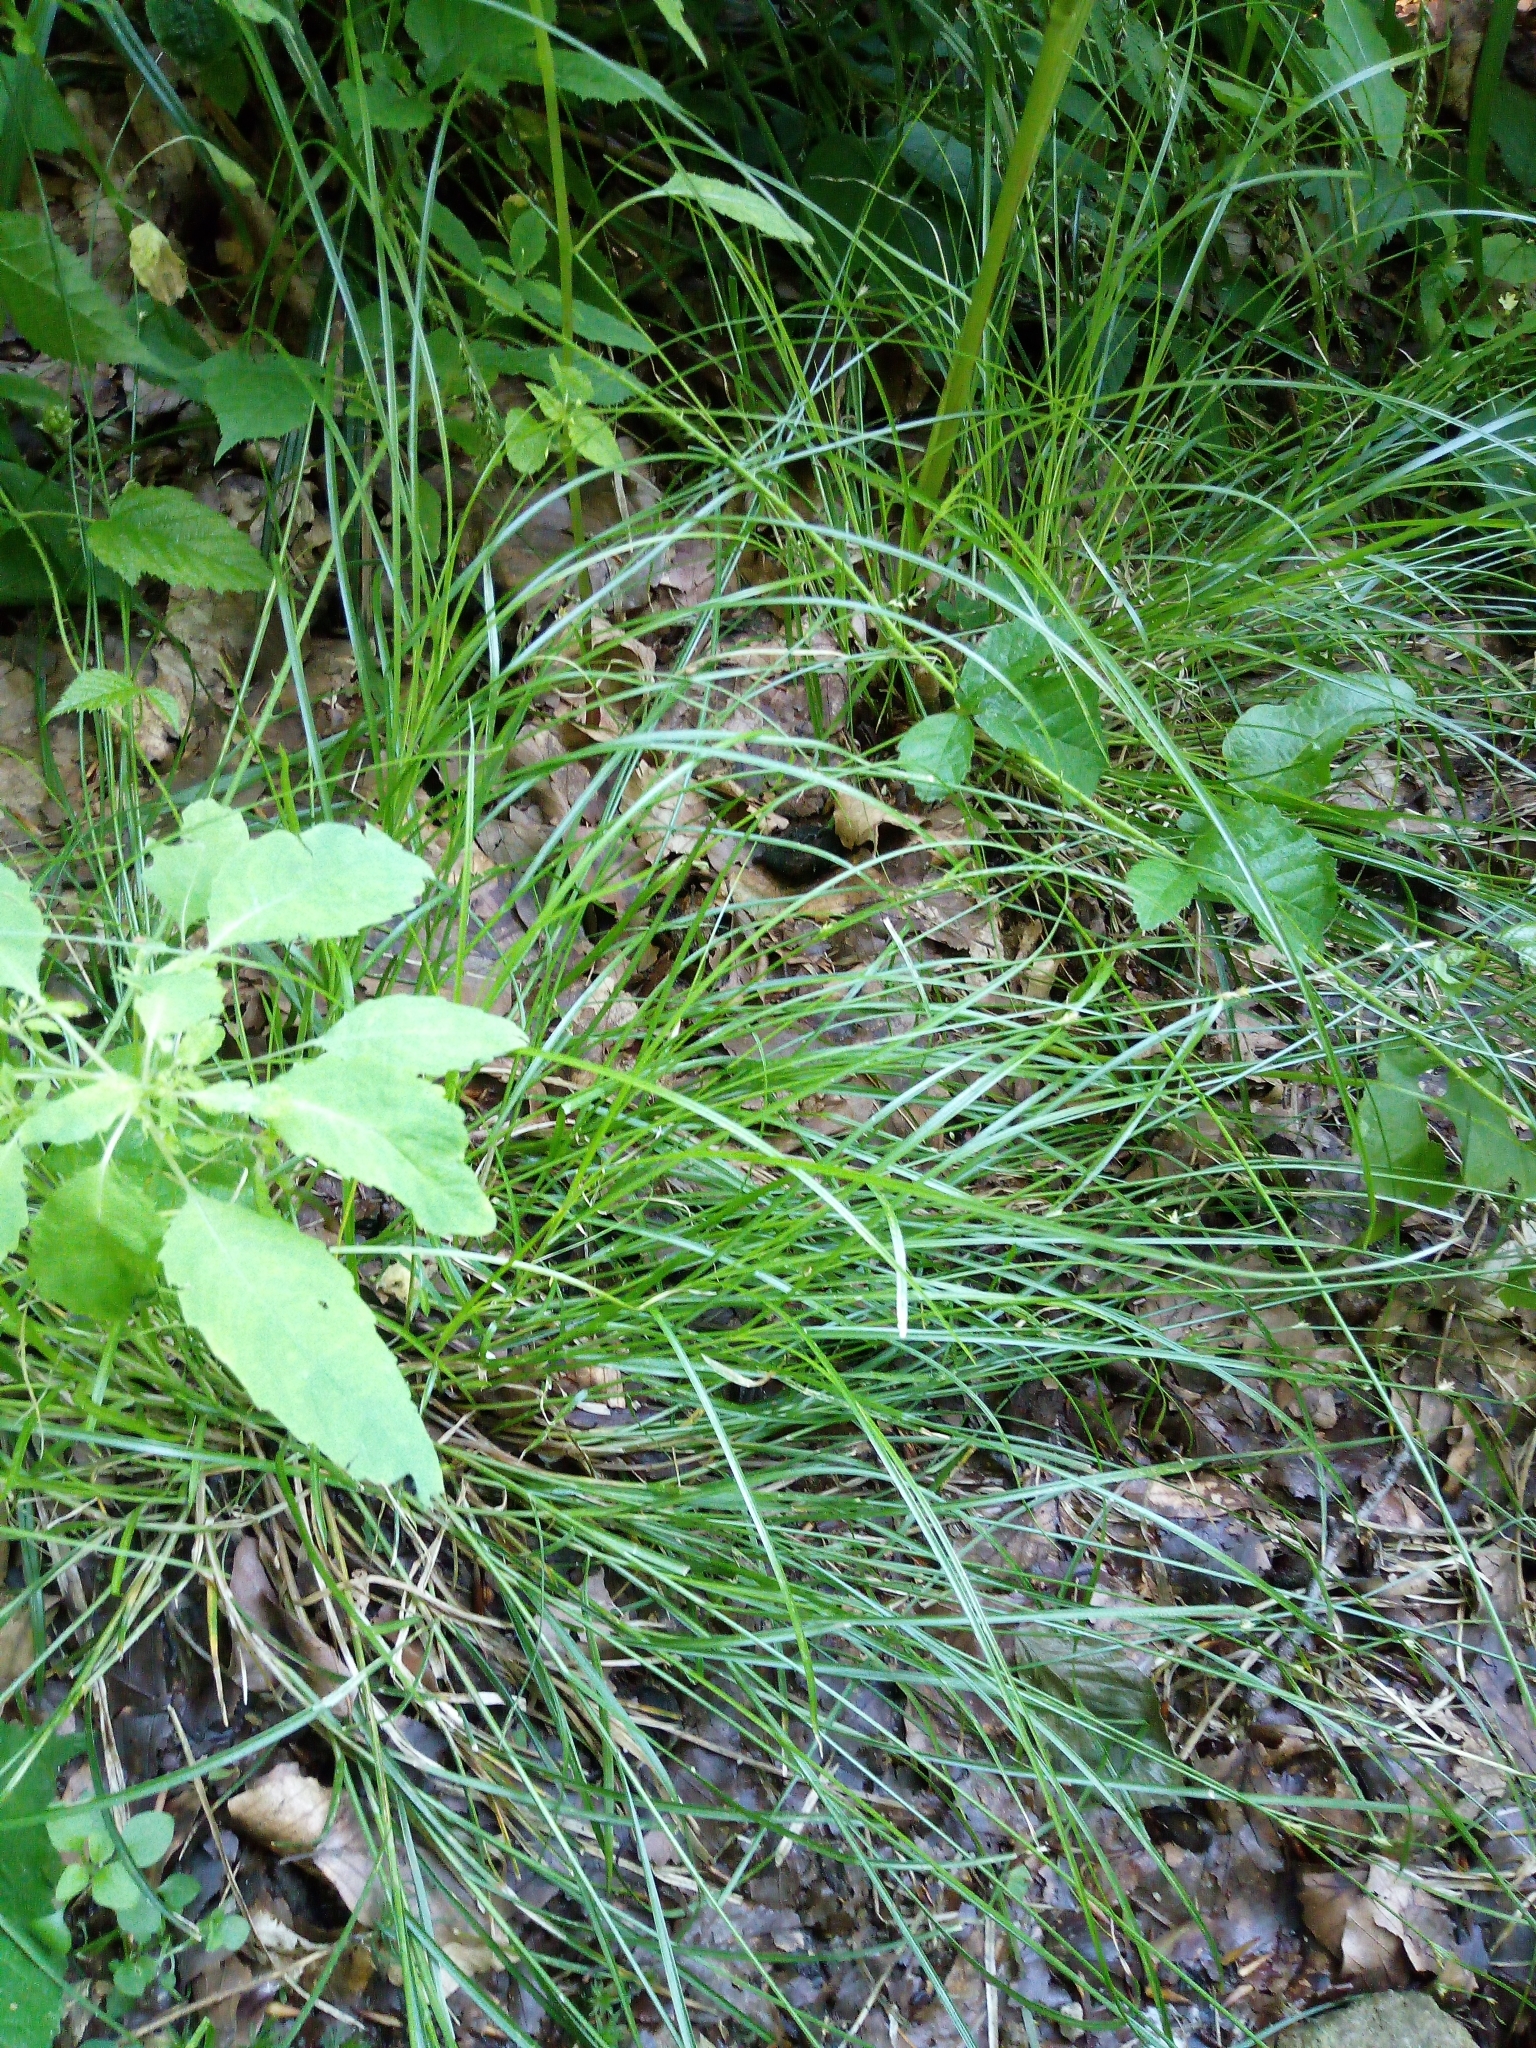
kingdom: Plantae
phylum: Tracheophyta
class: Liliopsida
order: Poales
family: Cyperaceae
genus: Carex
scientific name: Carex remota
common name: Remote sedge
